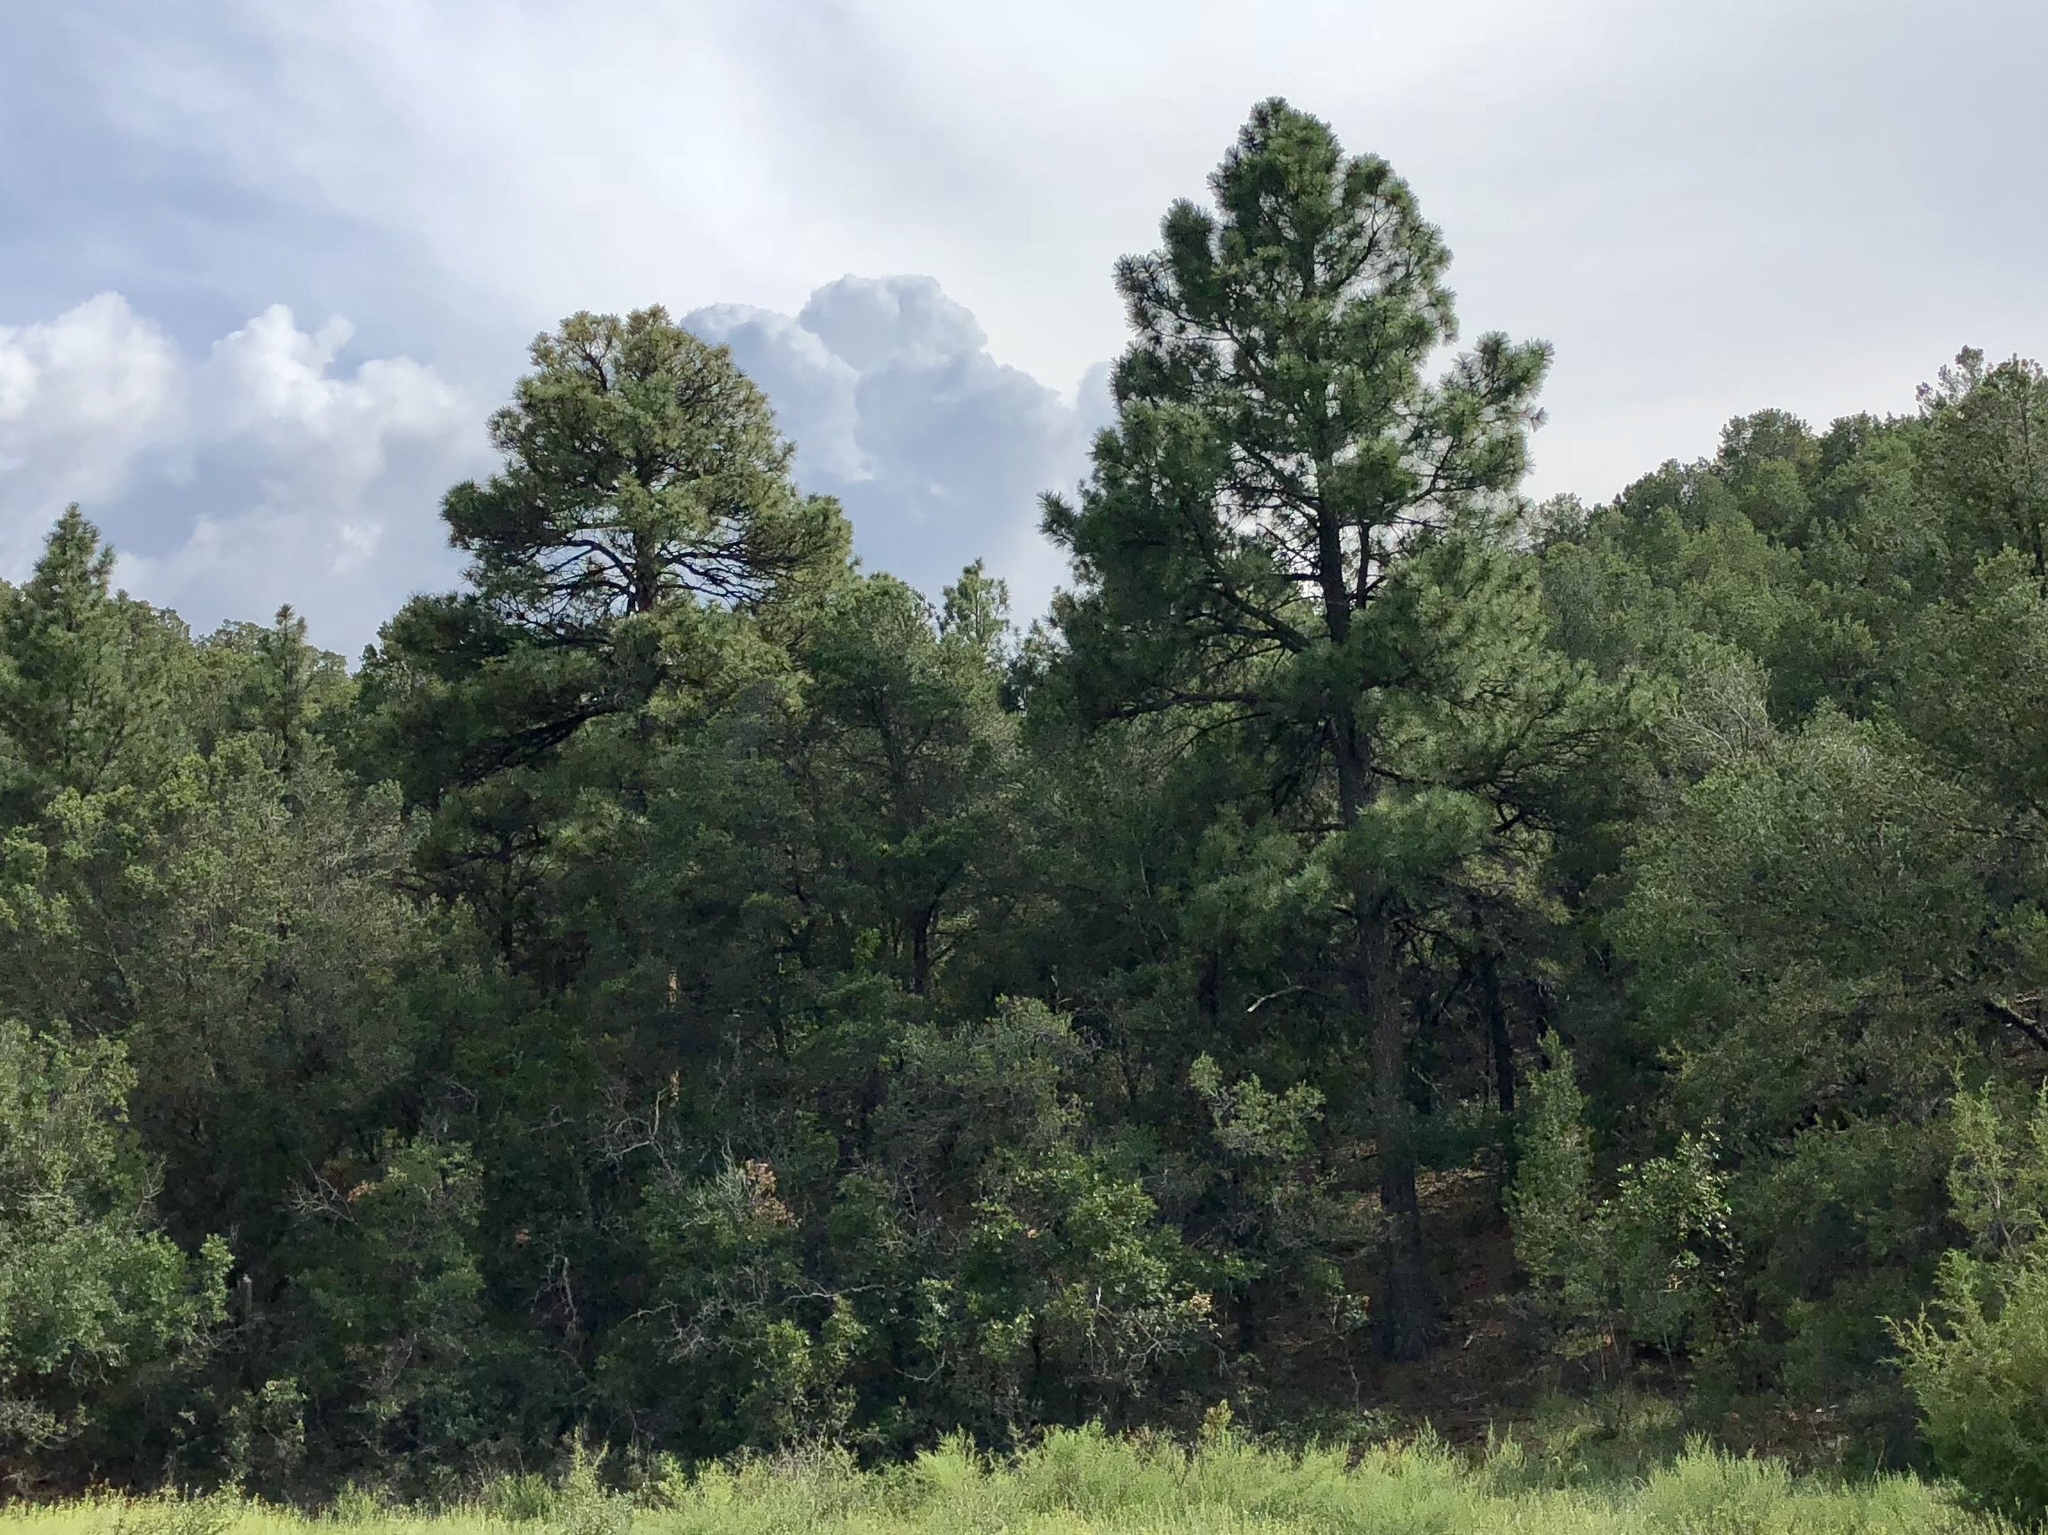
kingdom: Plantae
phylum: Tracheophyta
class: Pinopsida
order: Pinales
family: Pinaceae
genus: Pinus
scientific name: Pinus ponderosa
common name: Western yellow-pine
